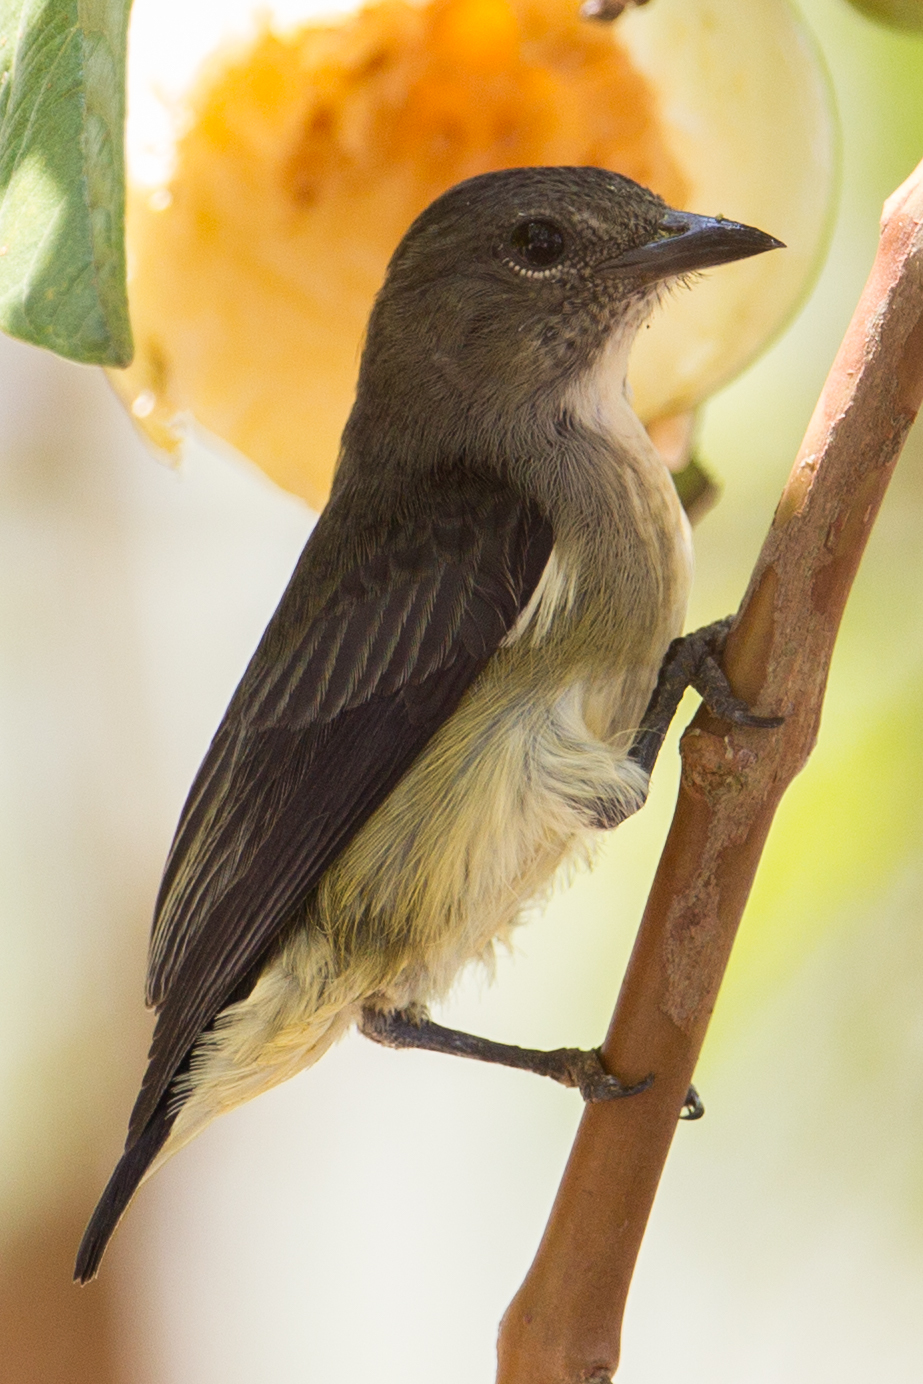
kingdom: Animalia
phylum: Chordata
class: Aves
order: Passeriformes
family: Dicaeidae
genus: Dicaeum
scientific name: Dicaeum celebicum
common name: Grey-sided flowerpecker
